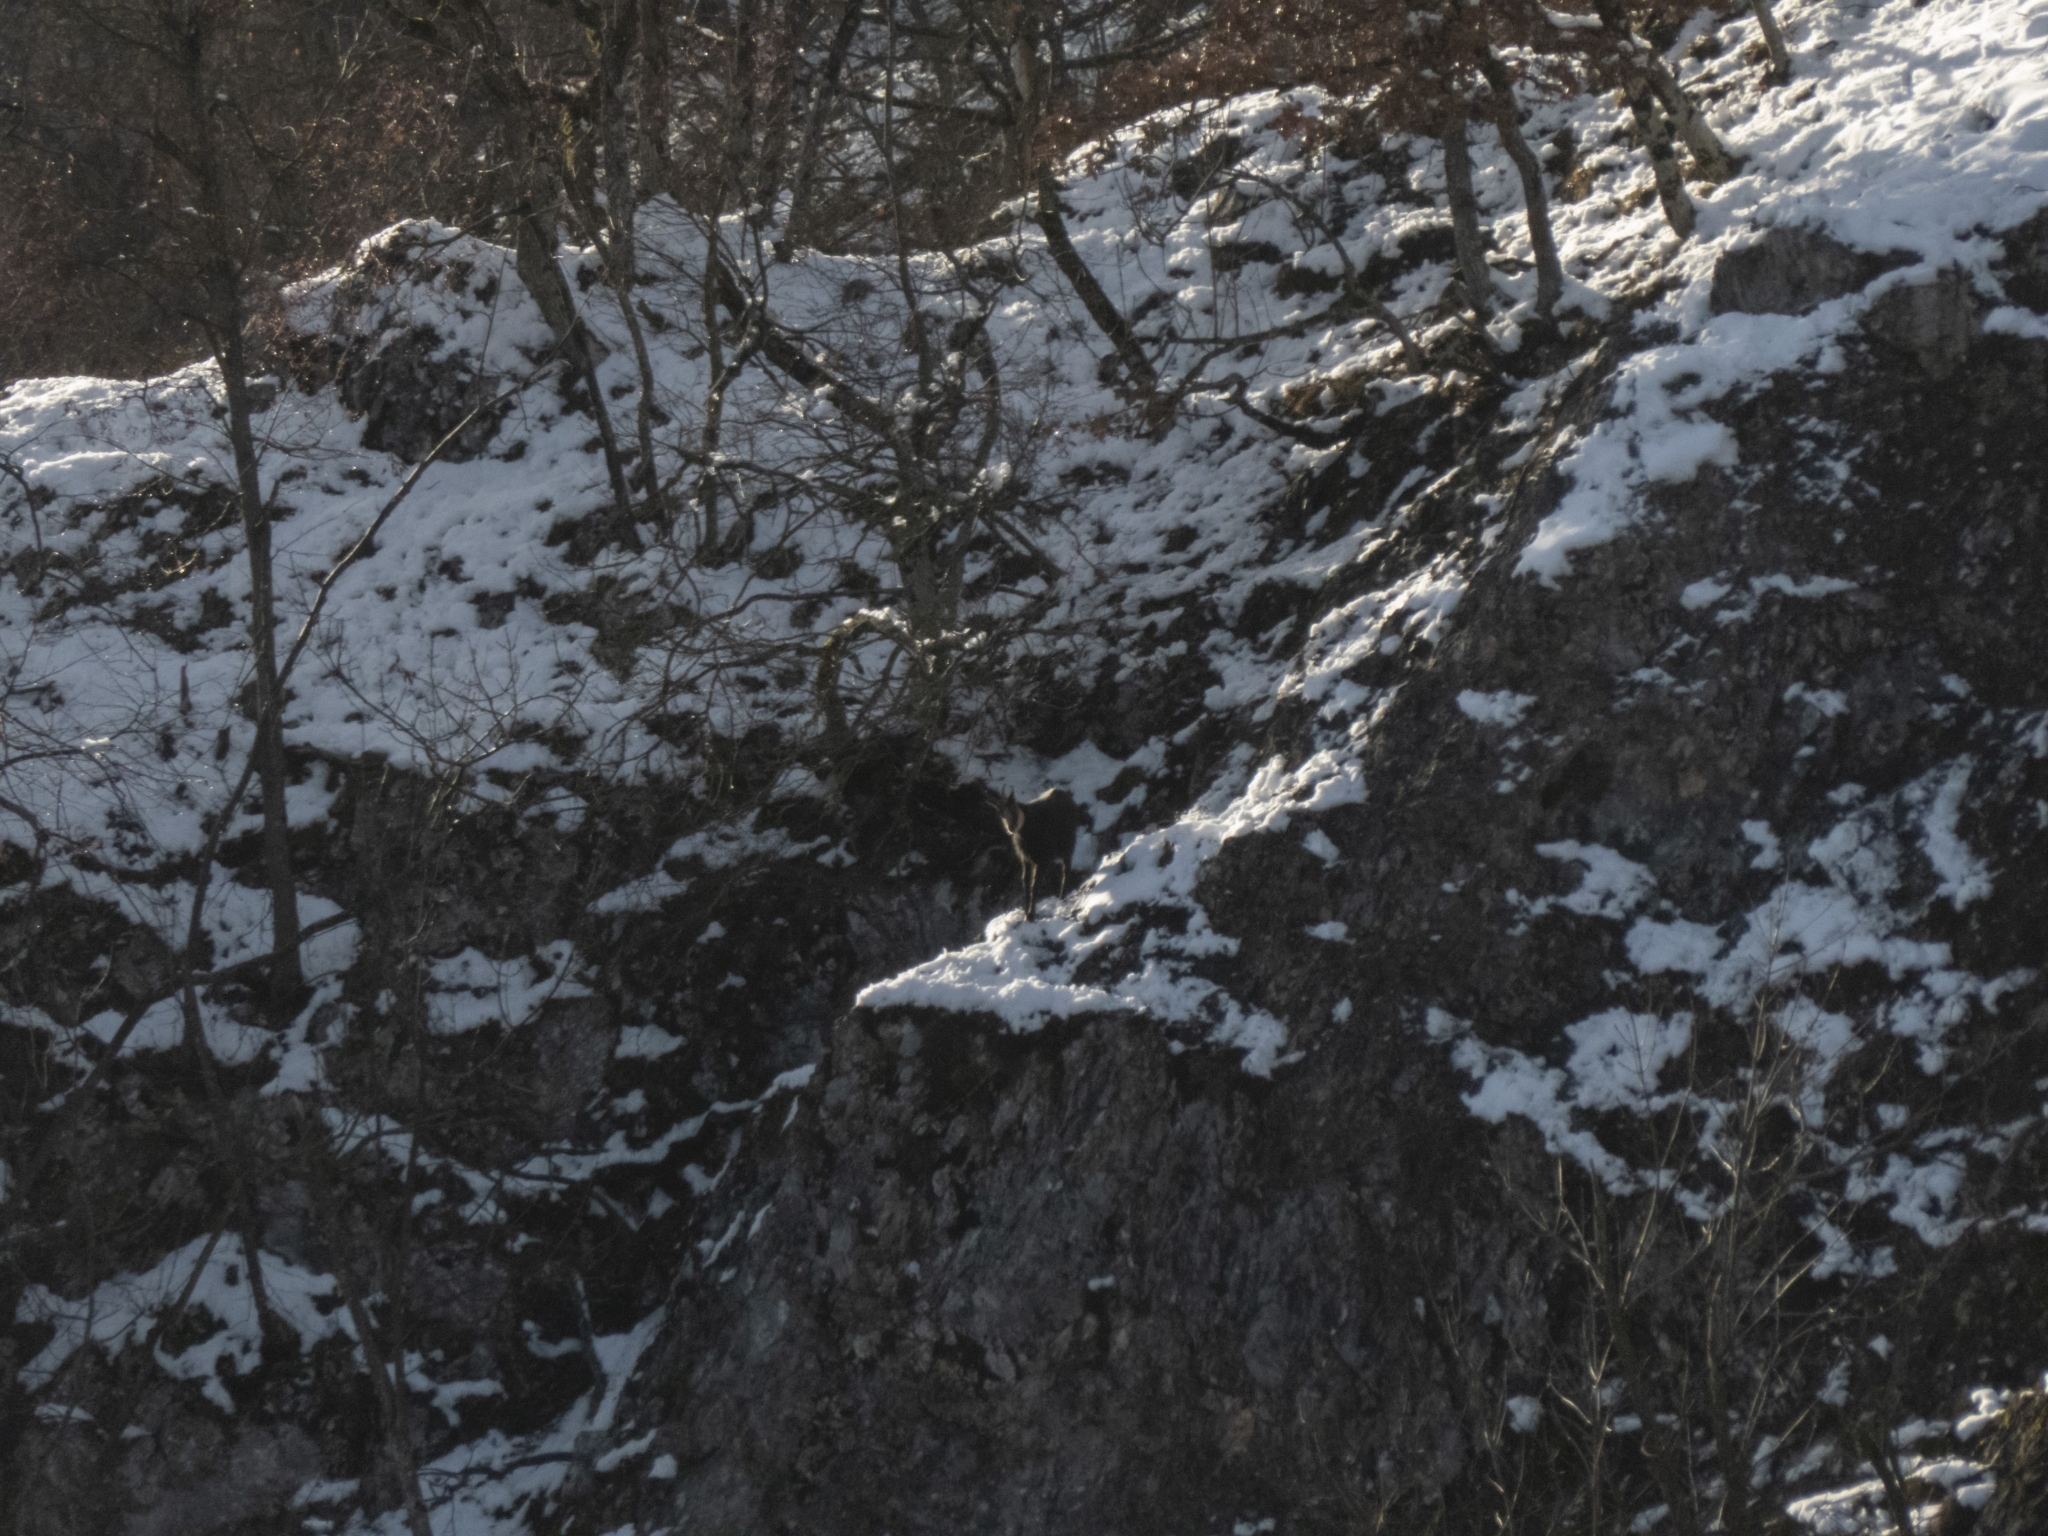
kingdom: Animalia
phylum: Chordata
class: Mammalia
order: Artiodactyla
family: Bovidae
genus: Rupicapra
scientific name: Rupicapra rupicapra
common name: Chamois
